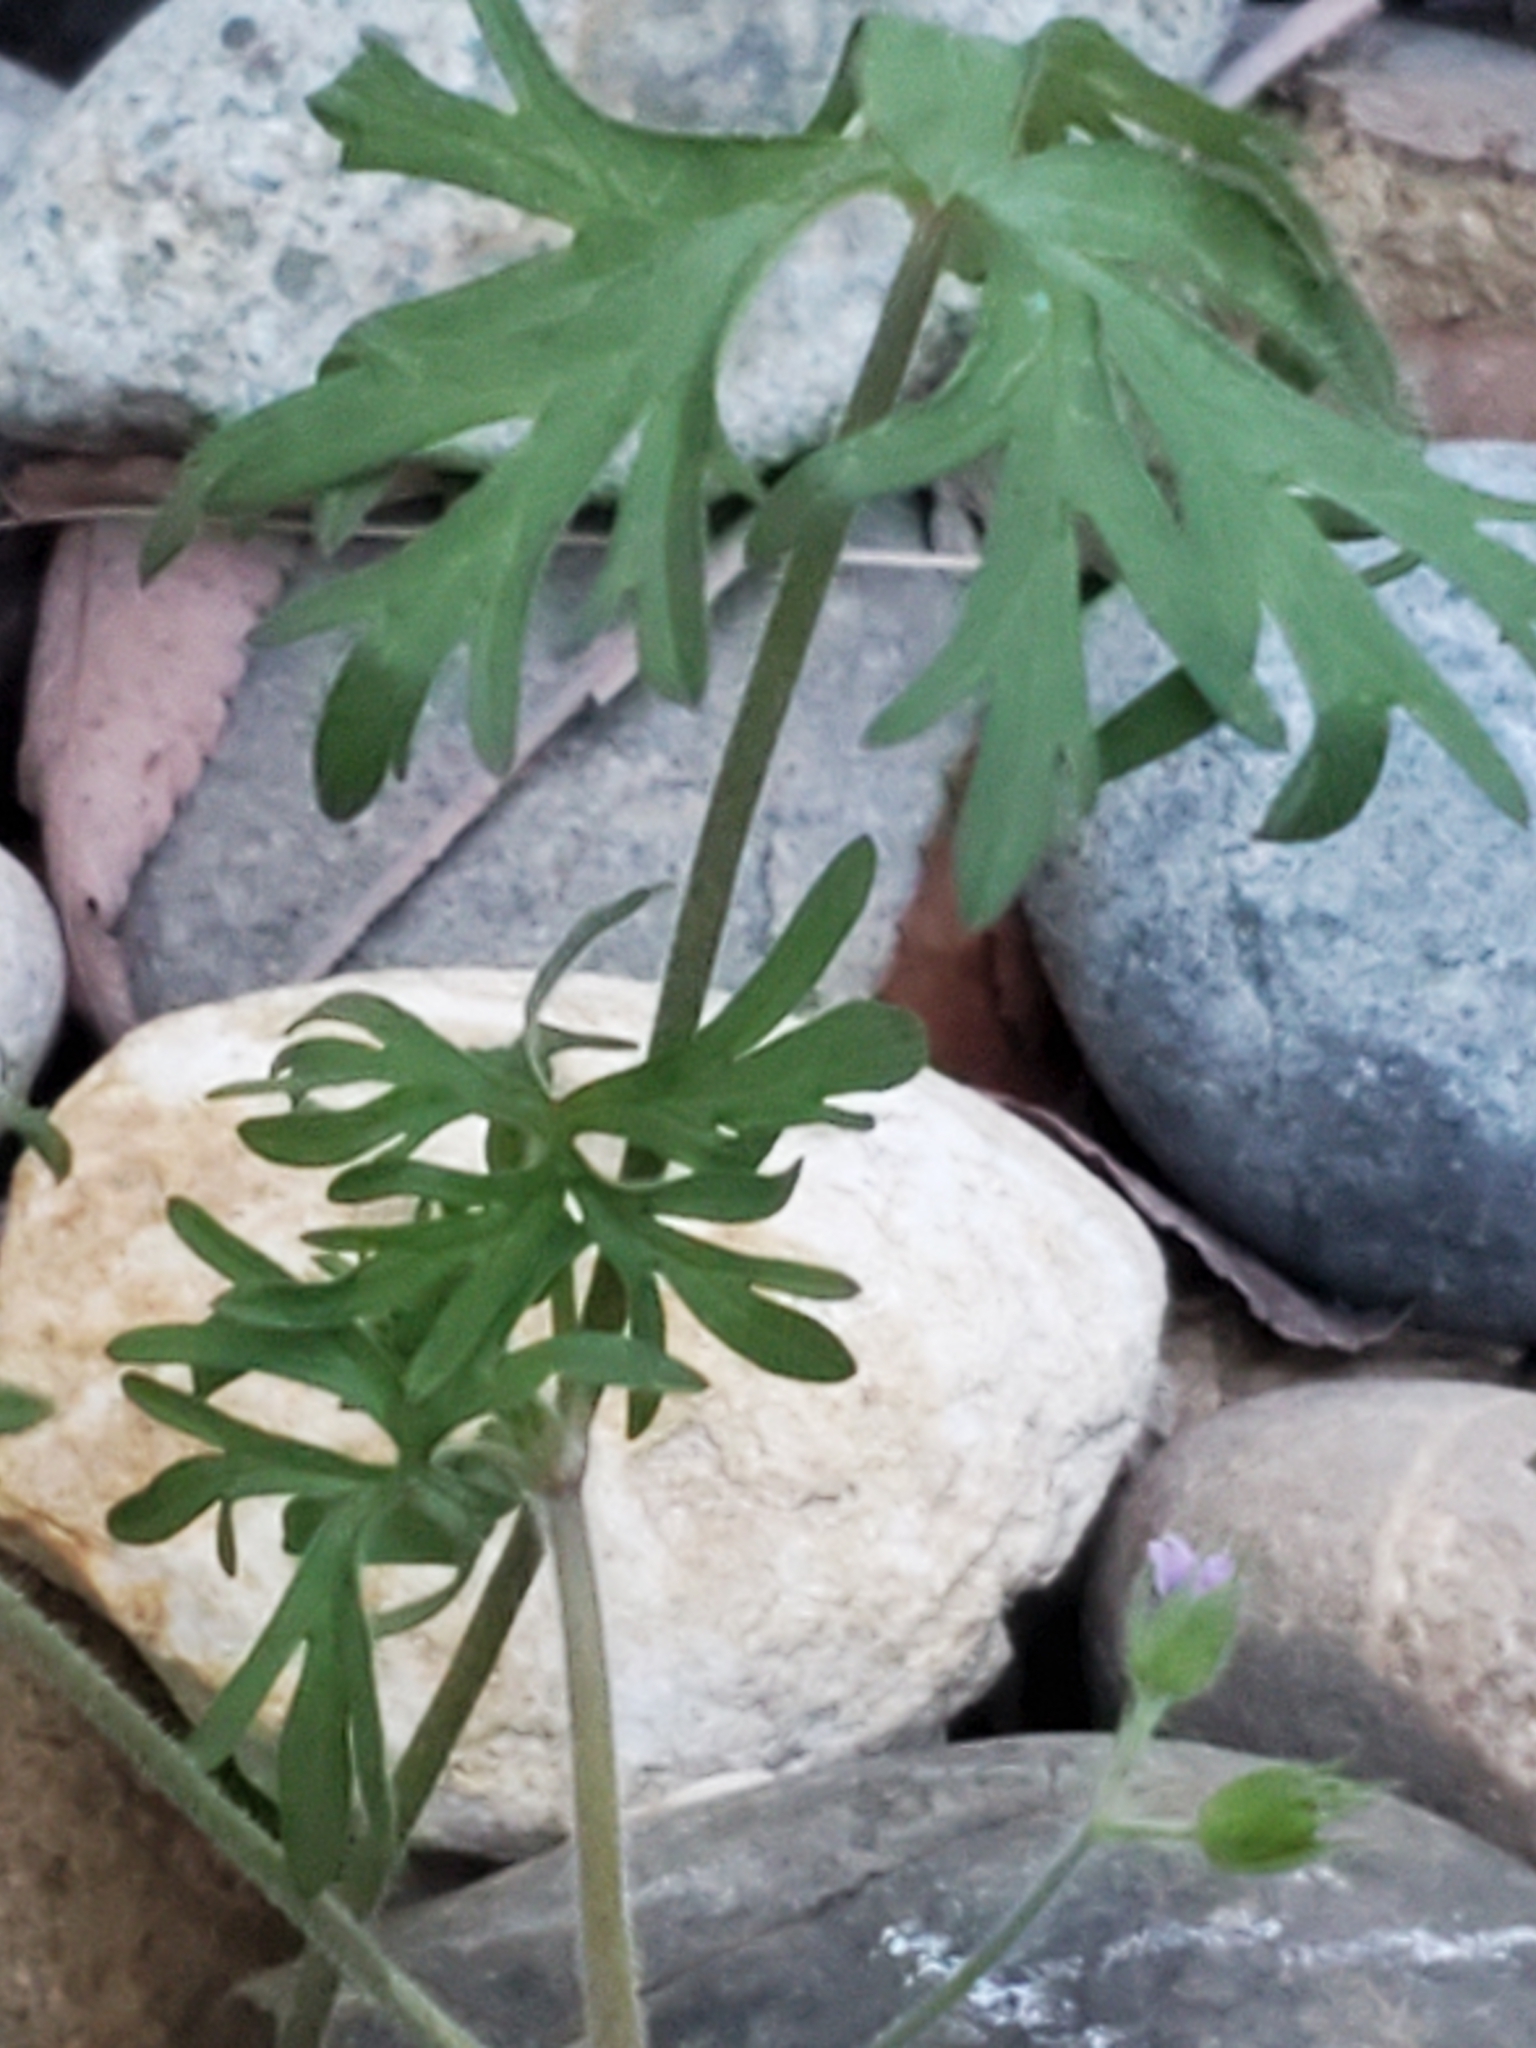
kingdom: Plantae
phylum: Tracheophyta
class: Magnoliopsida
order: Geraniales
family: Geraniaceae
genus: Geranium
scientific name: Geranium dissectum
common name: Cut-leaved crane's-bill
